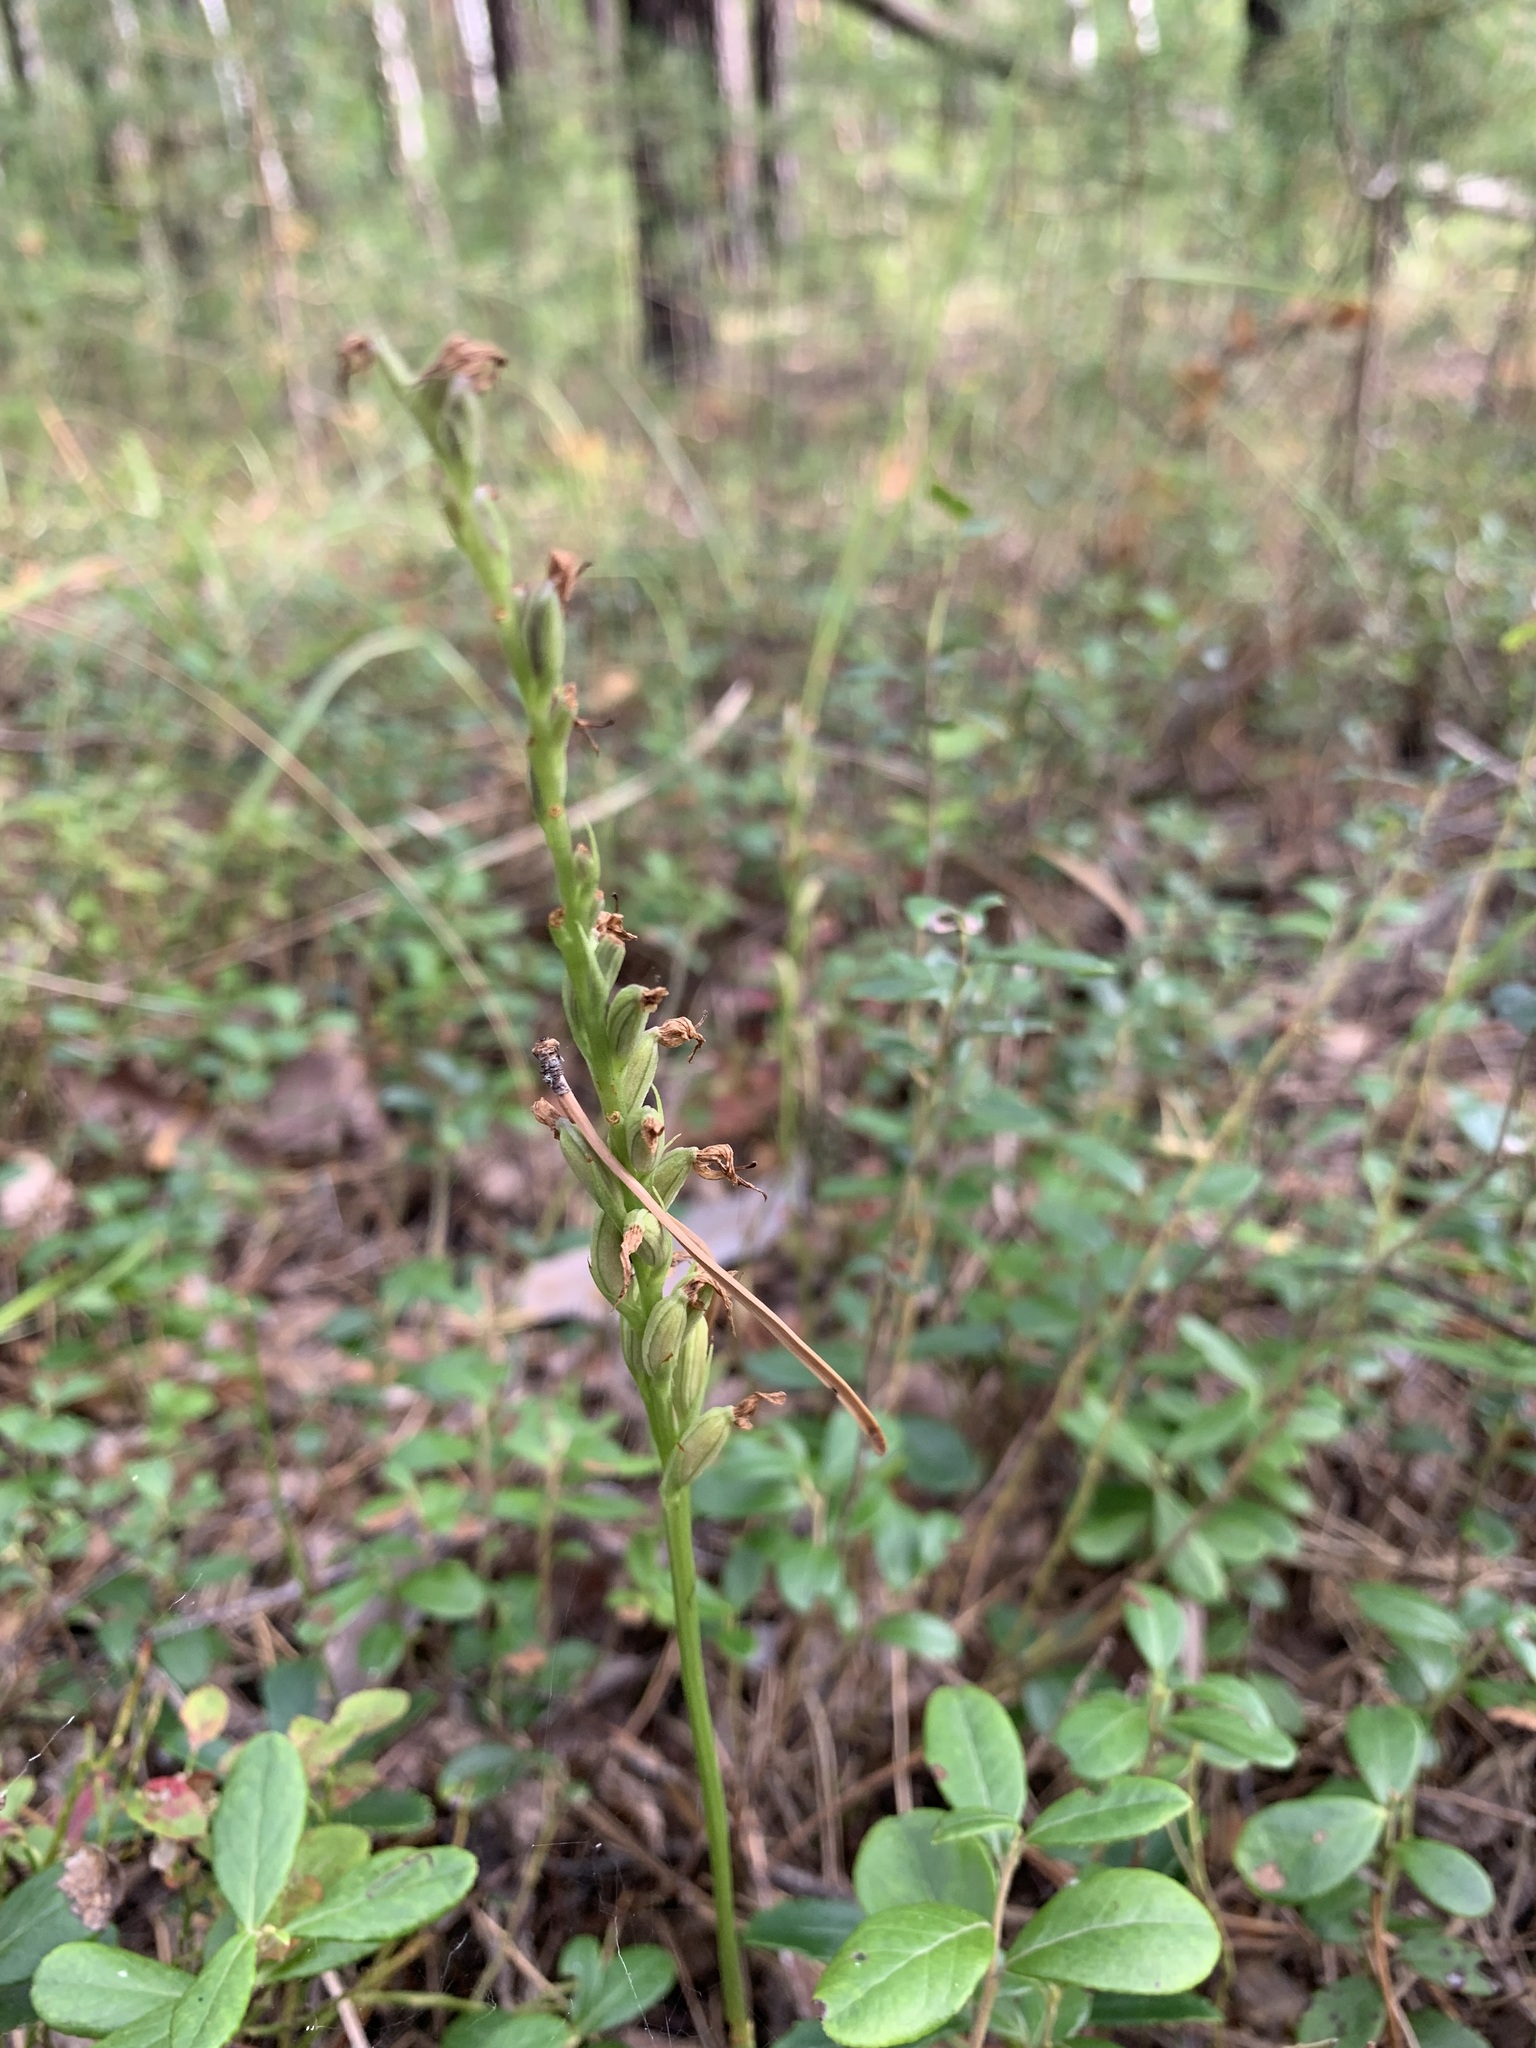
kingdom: Plantae
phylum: Tracheophyta
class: Liliopsida
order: Asparagales
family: Orchidaceae
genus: Hemipilia
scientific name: Hemipilia cucullata
